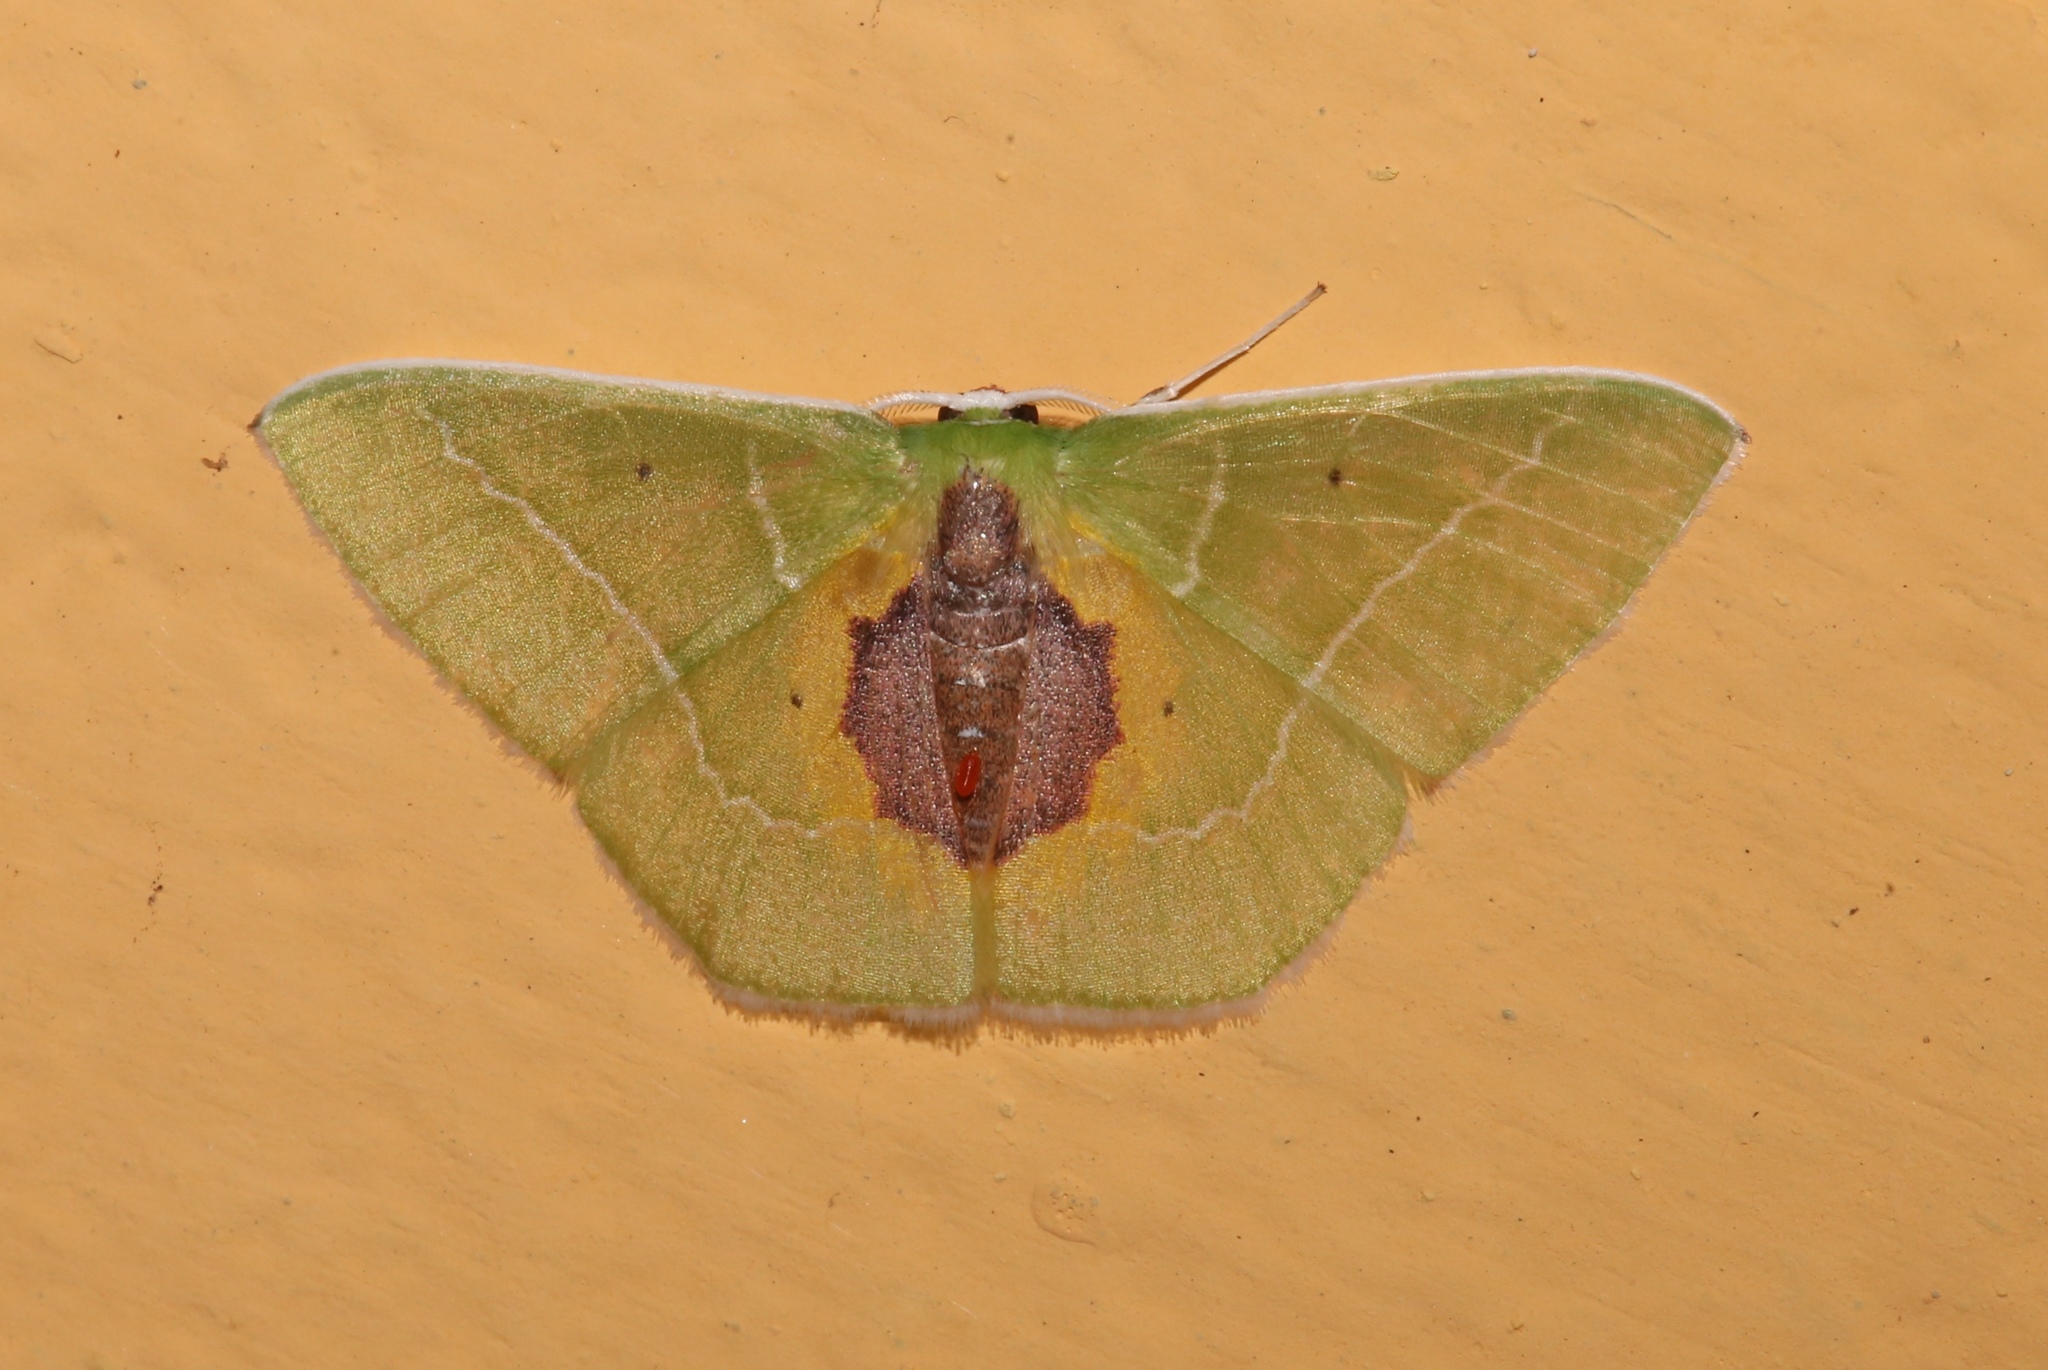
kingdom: Animalia
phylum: Arthropoda
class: Insecta
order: Lepidoptera
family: Geometridae
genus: Nemoria
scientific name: Nemoria astraea
